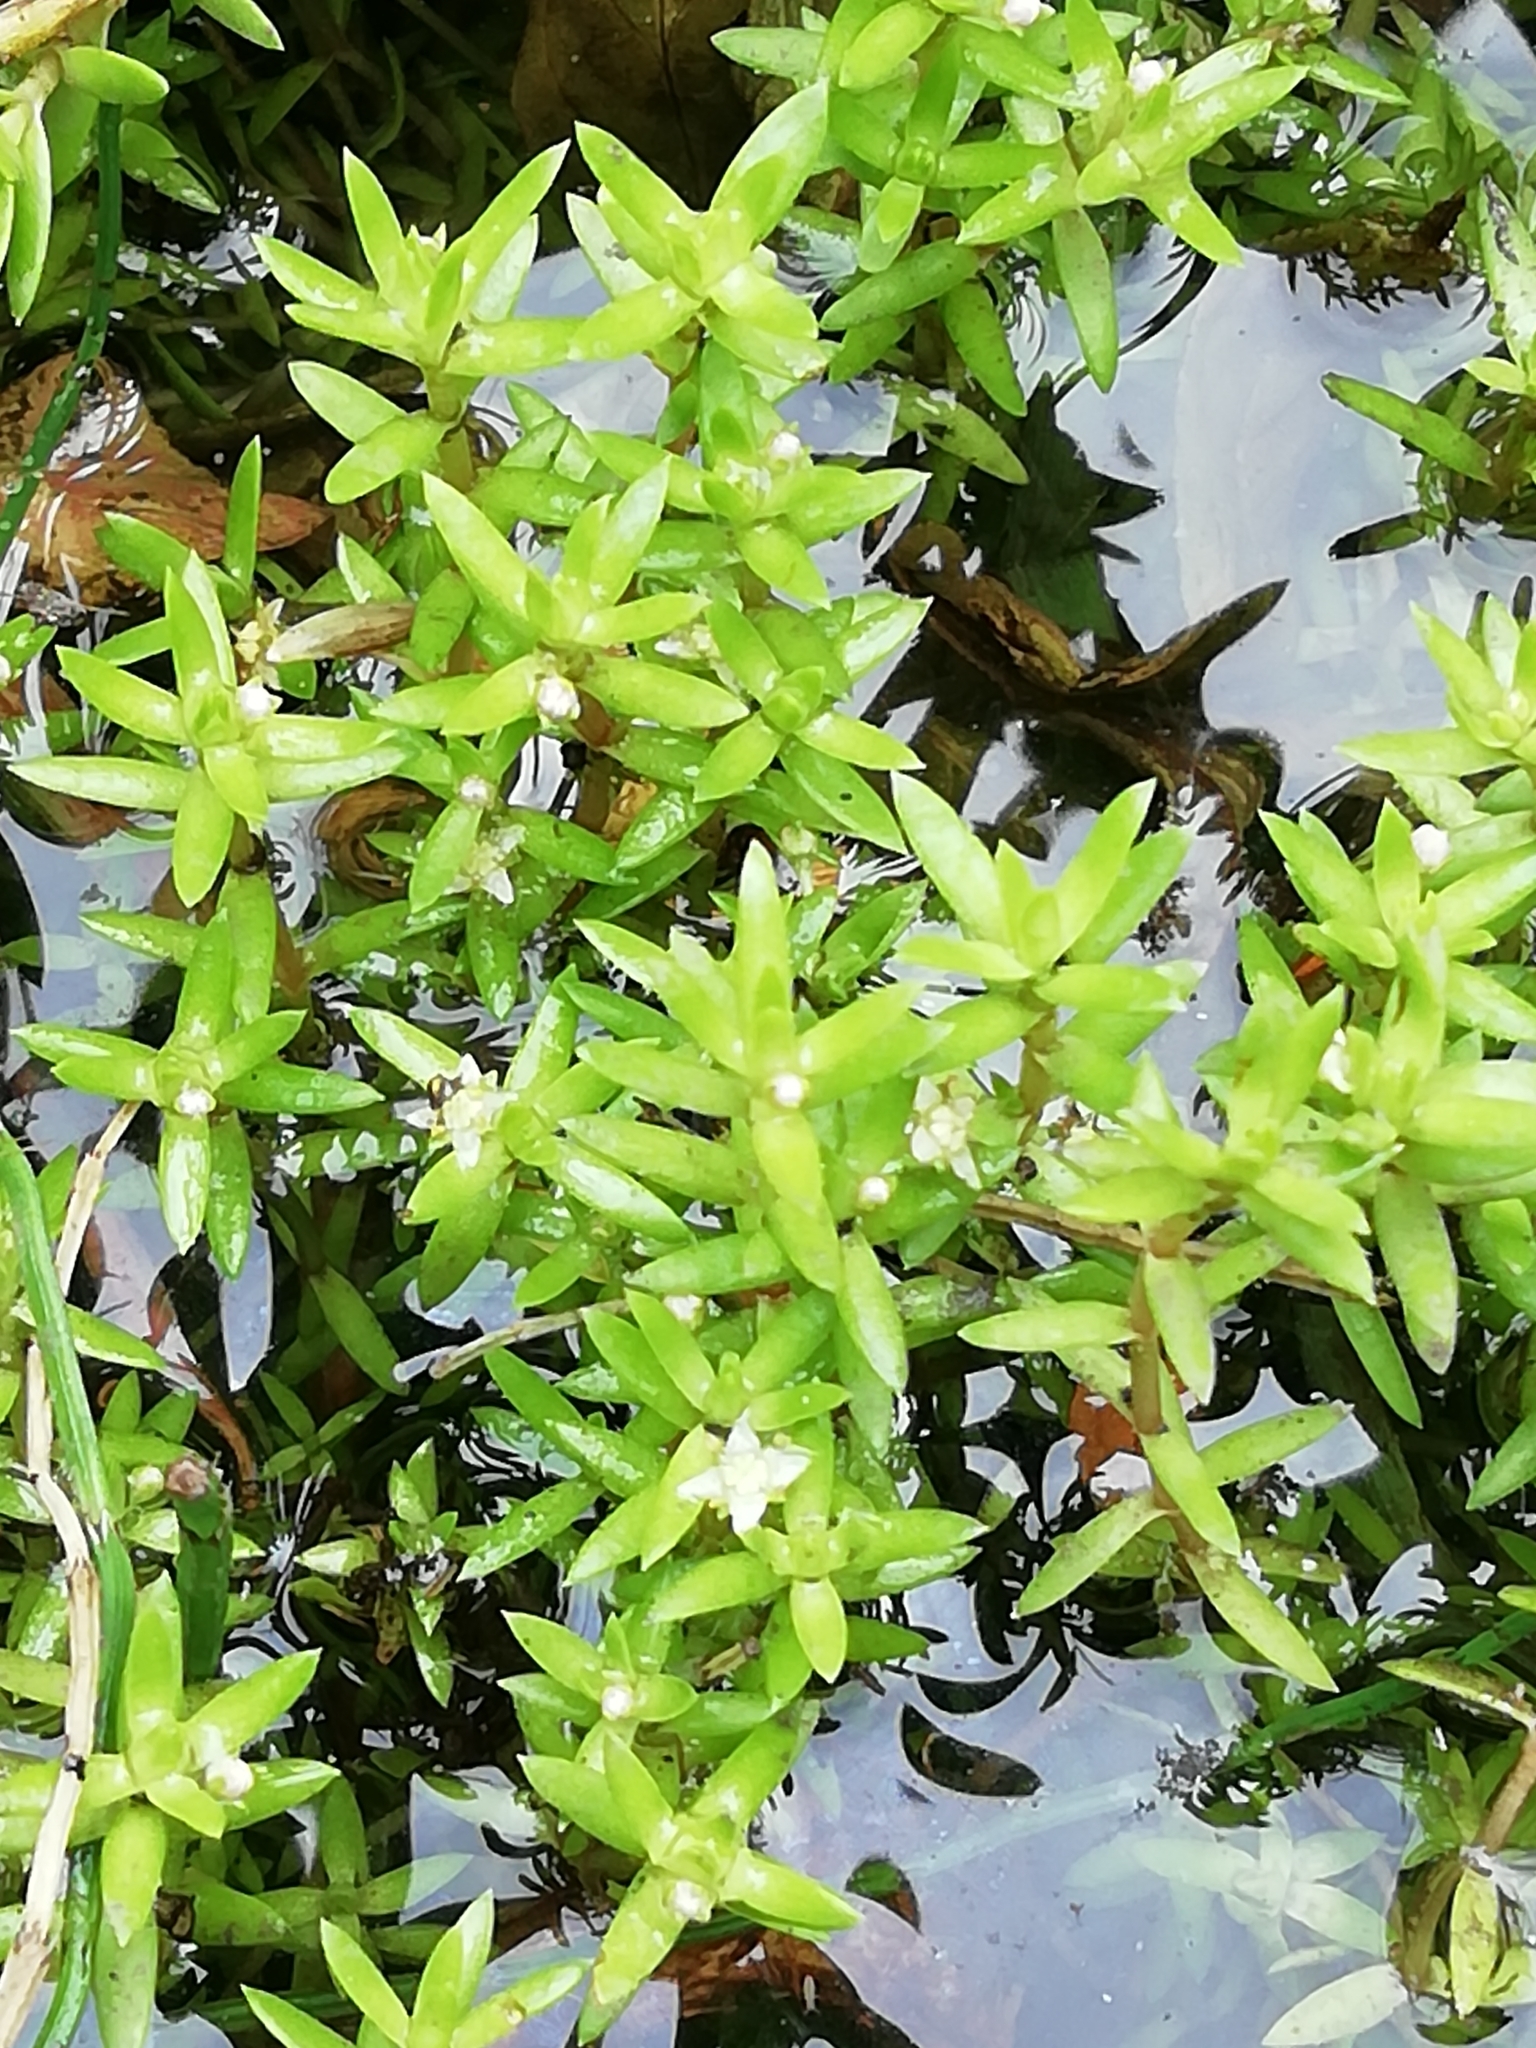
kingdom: Plantae
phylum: Tracheophyta
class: Magnoliopsida
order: Saxifragales
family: Crassulaceae
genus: Crassula
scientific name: Crassula helmsii
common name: New zealand pigmyweed
